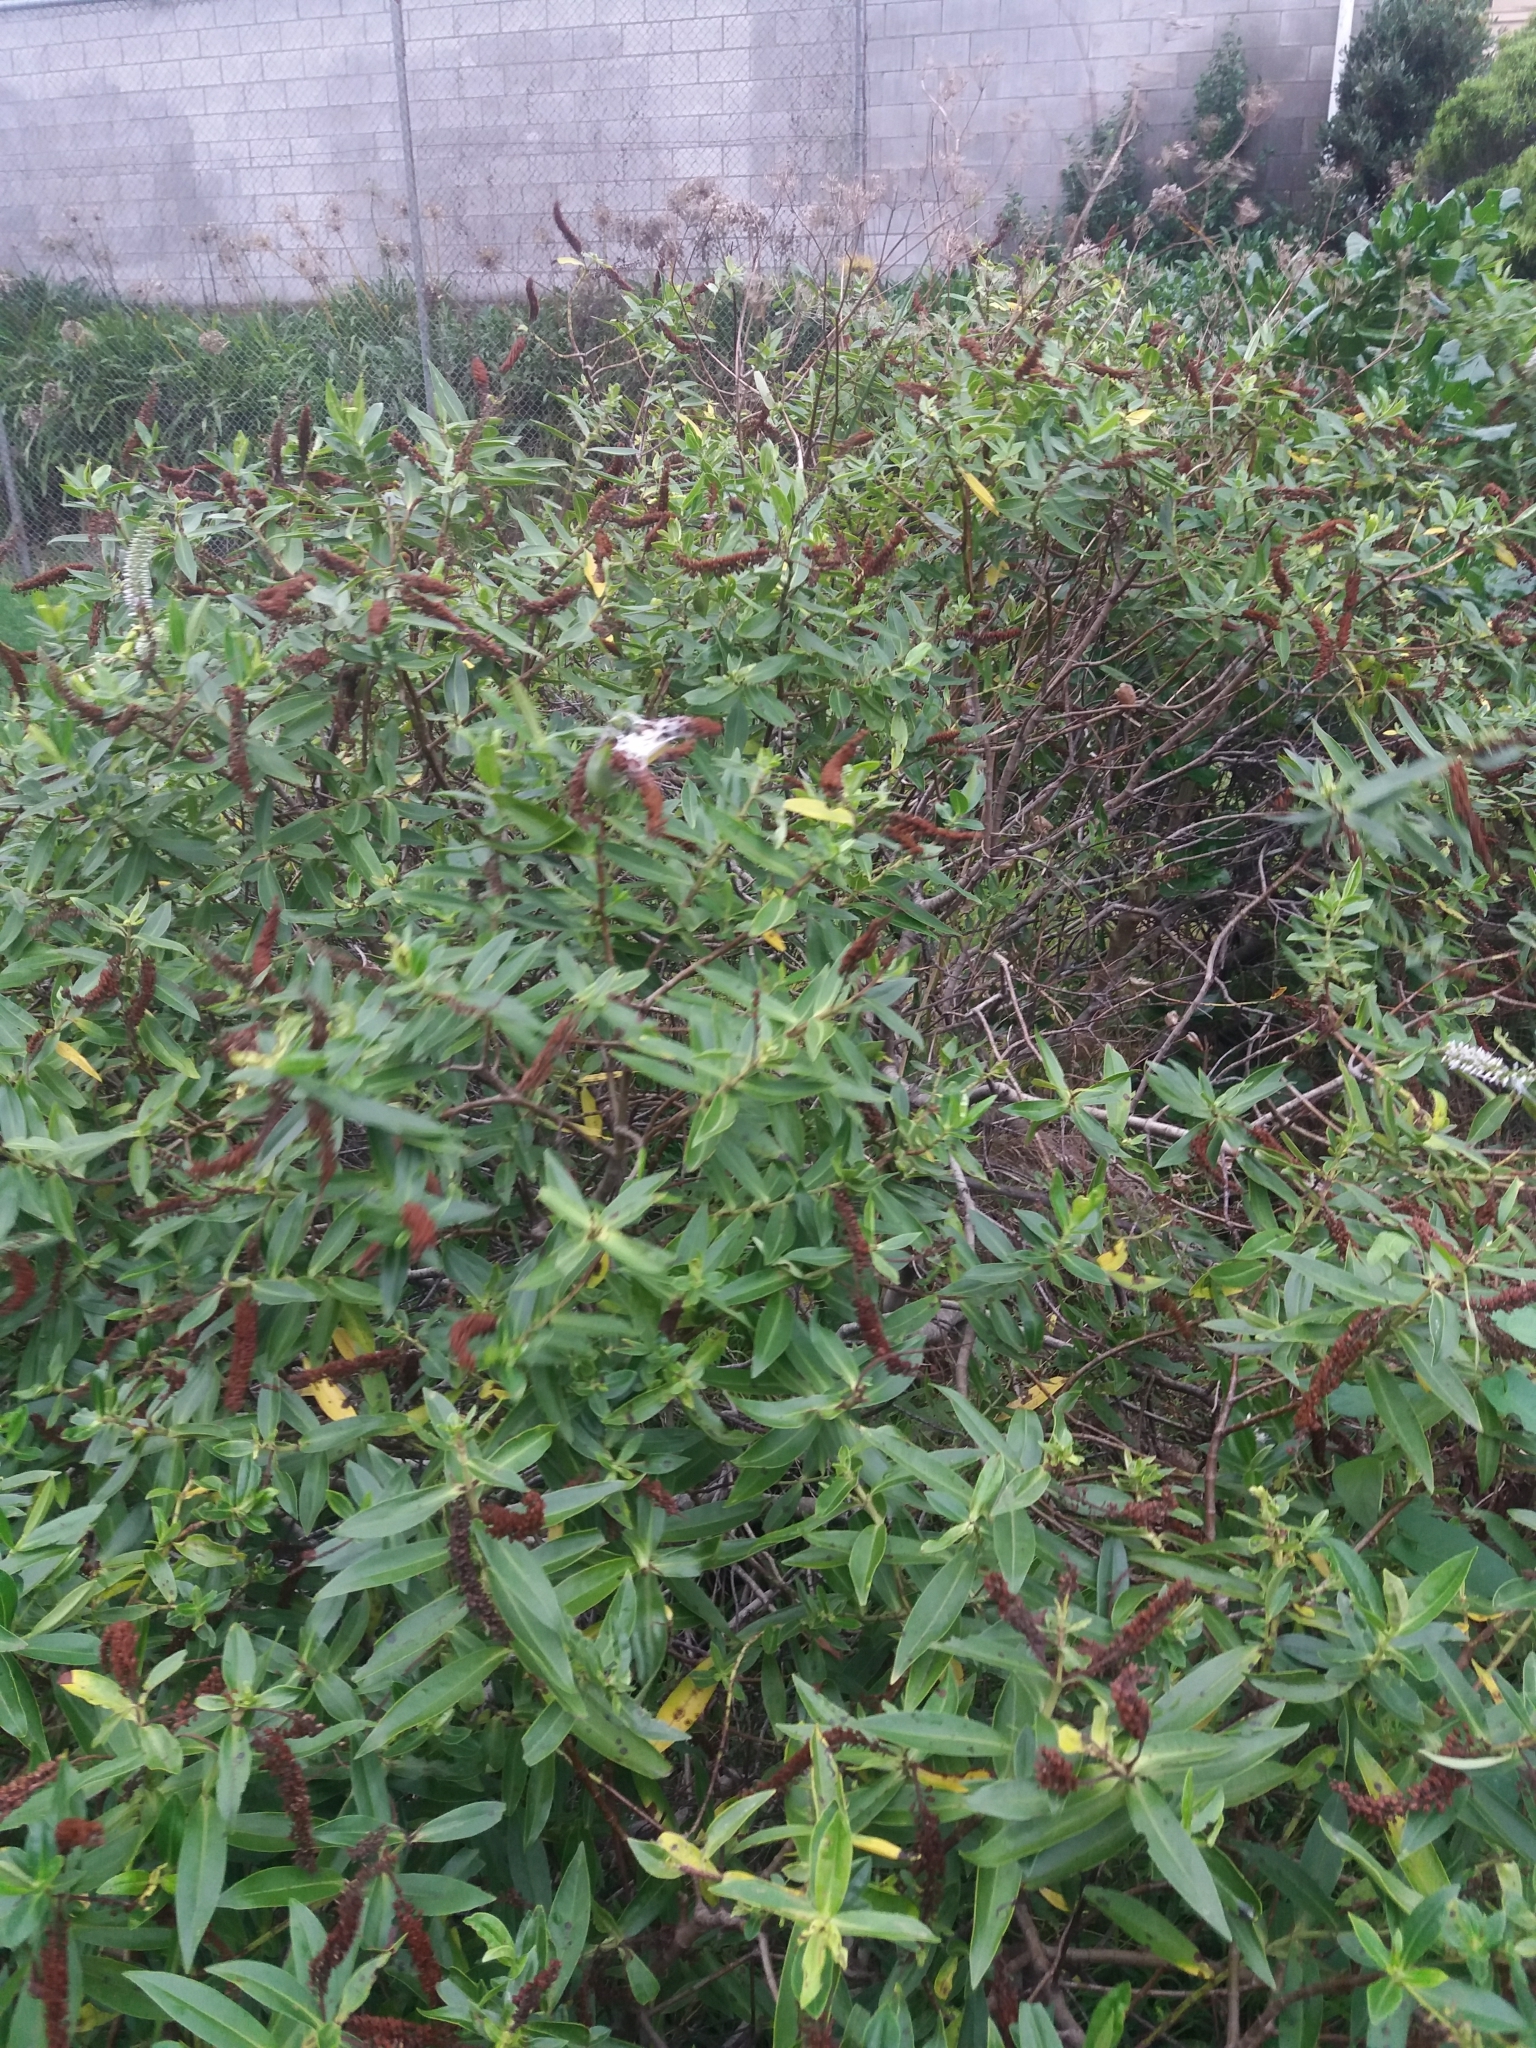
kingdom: Animalia
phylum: Arthropoda
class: Arachnida
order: Araneae
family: Pisauridae
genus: Dolomedes
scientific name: Dolomedes minor
